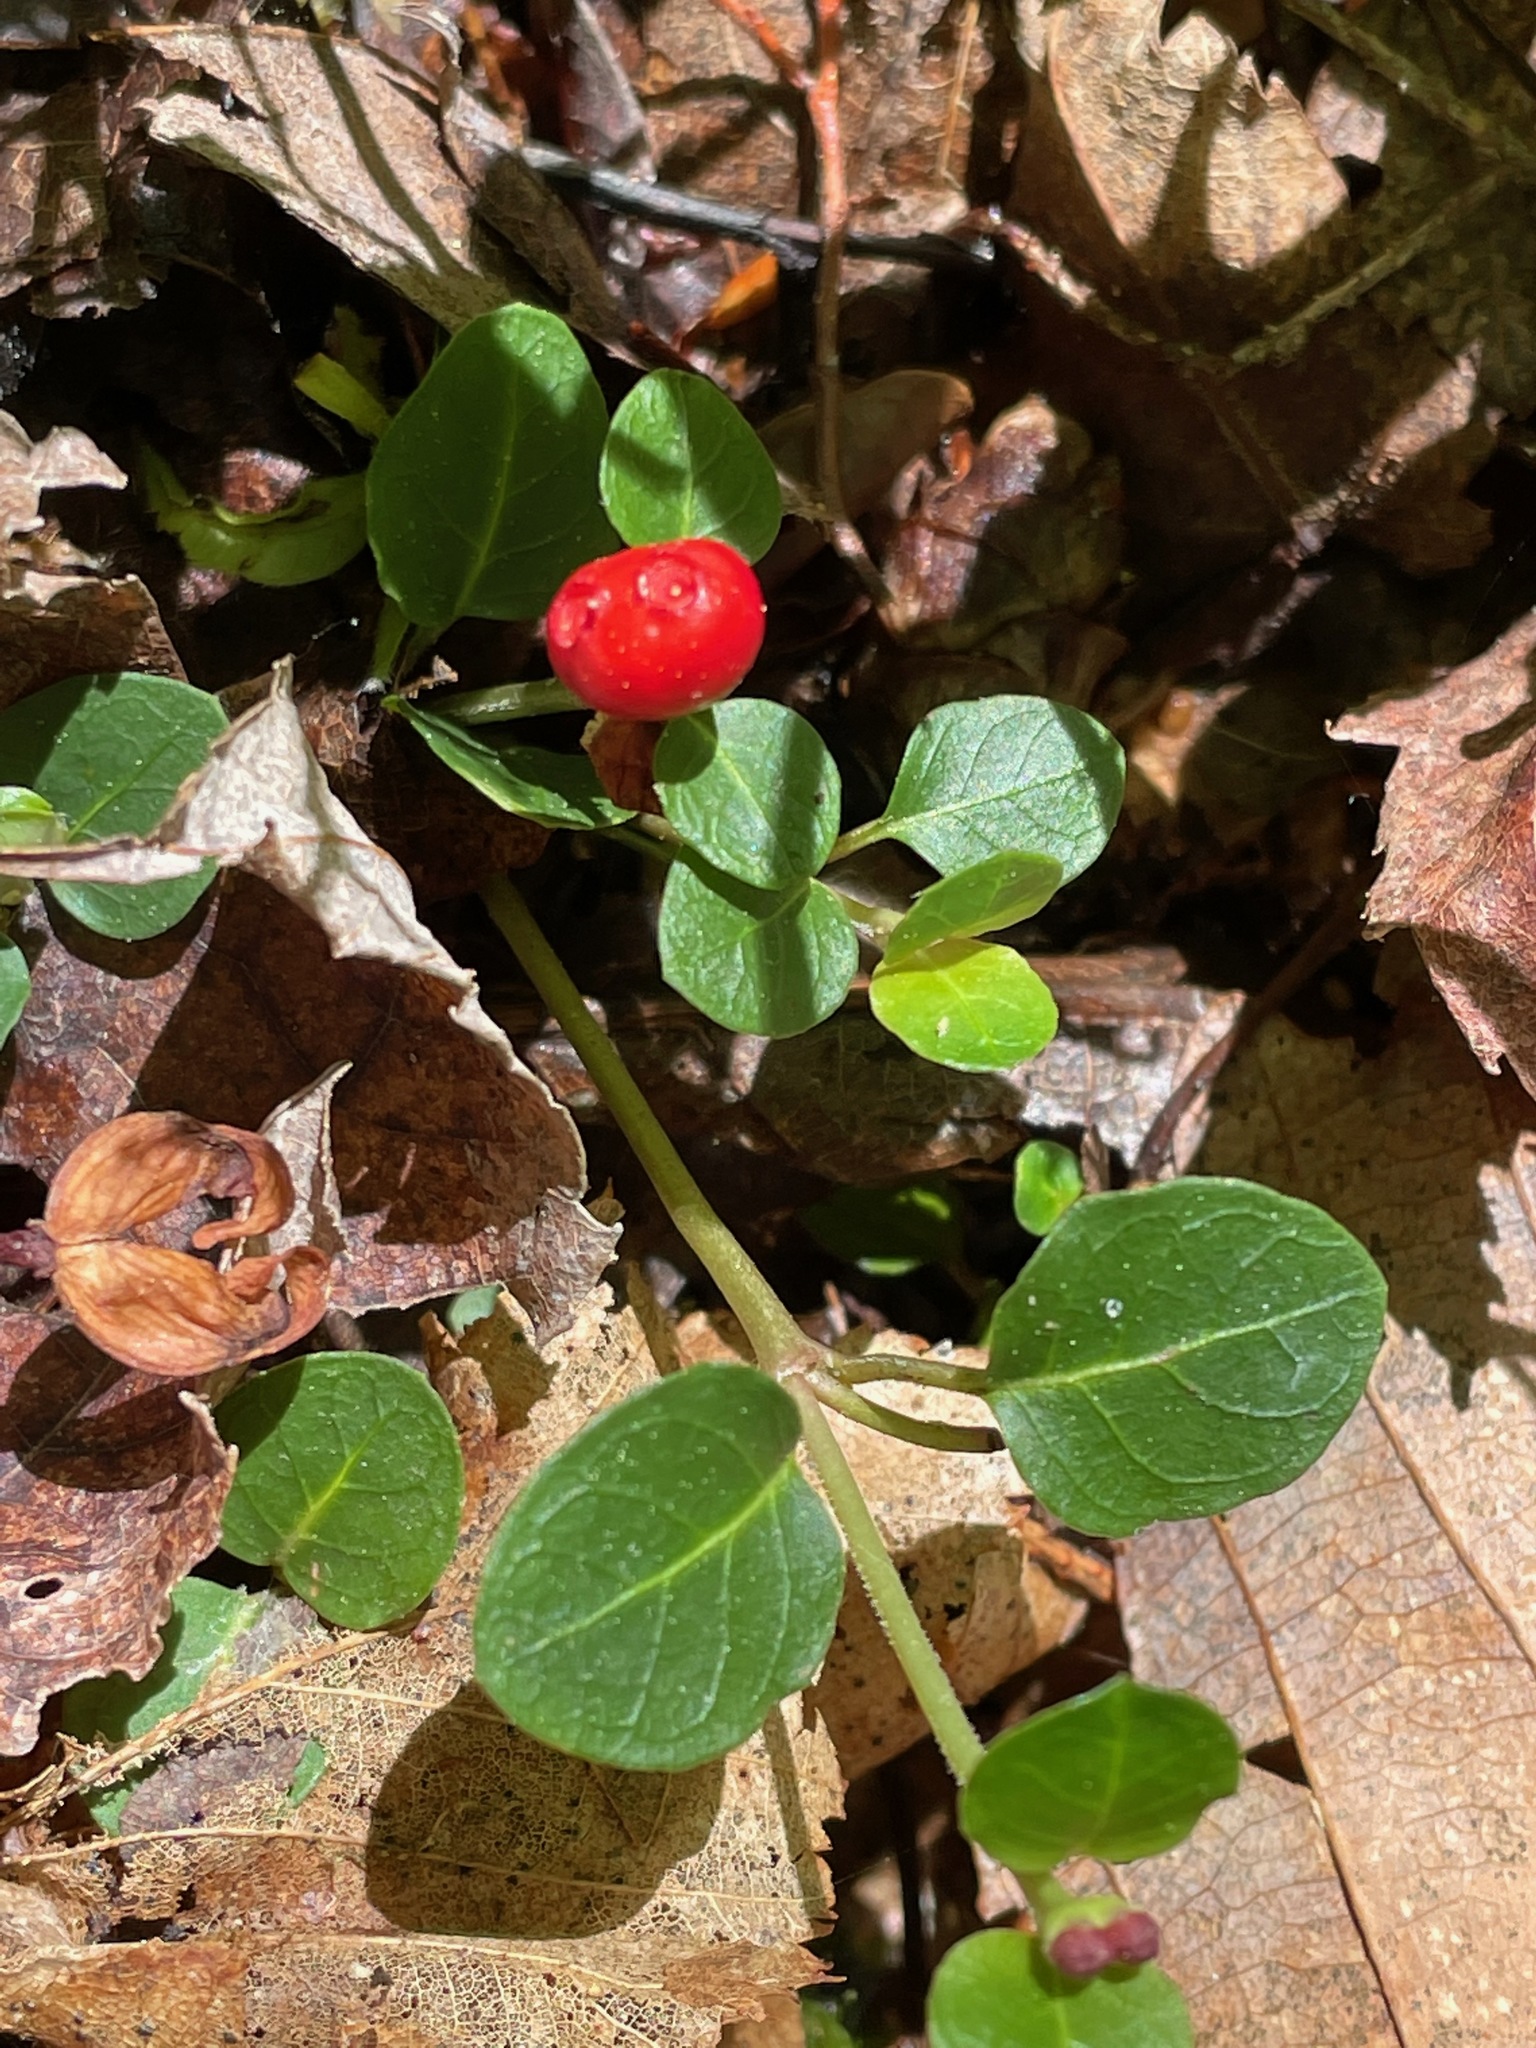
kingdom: Plantae
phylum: Tracheophyta
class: Magnoliopsida
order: Gentianales
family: Rubiaceae
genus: Mitchella
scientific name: Mitchella repens
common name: Partridge-berry
